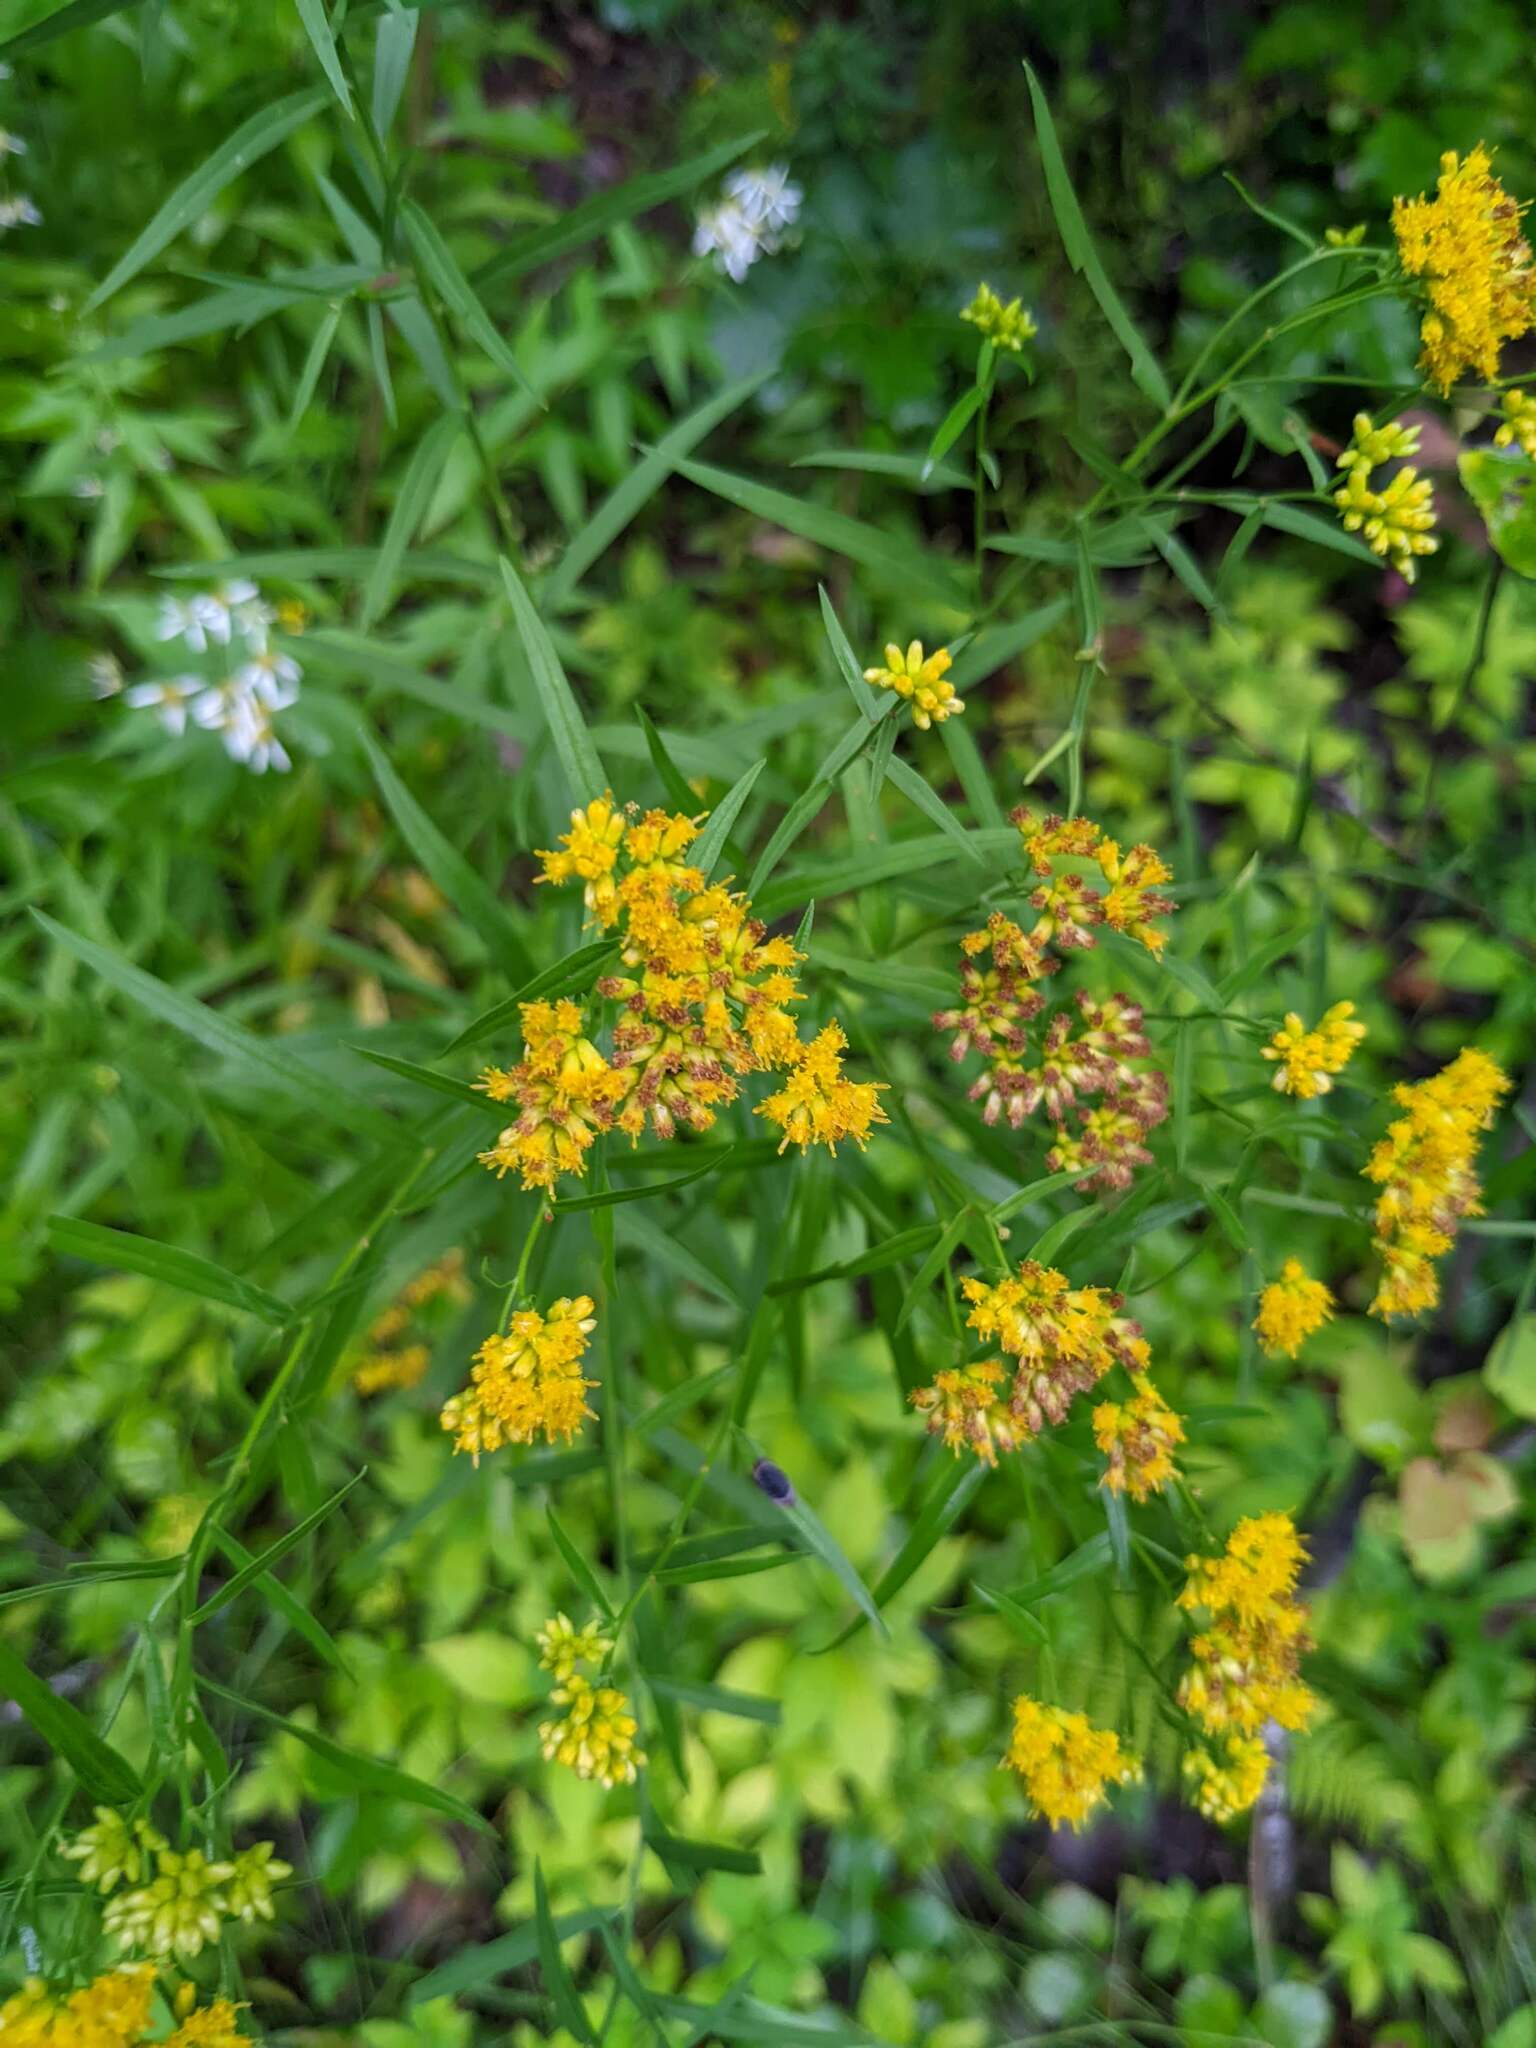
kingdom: Plantae
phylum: Tracheophyta
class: Magnoliopsida
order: Asterales
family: Asteraceae
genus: Euthamia
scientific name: Euthamia graminifolia
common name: Common goldentop
